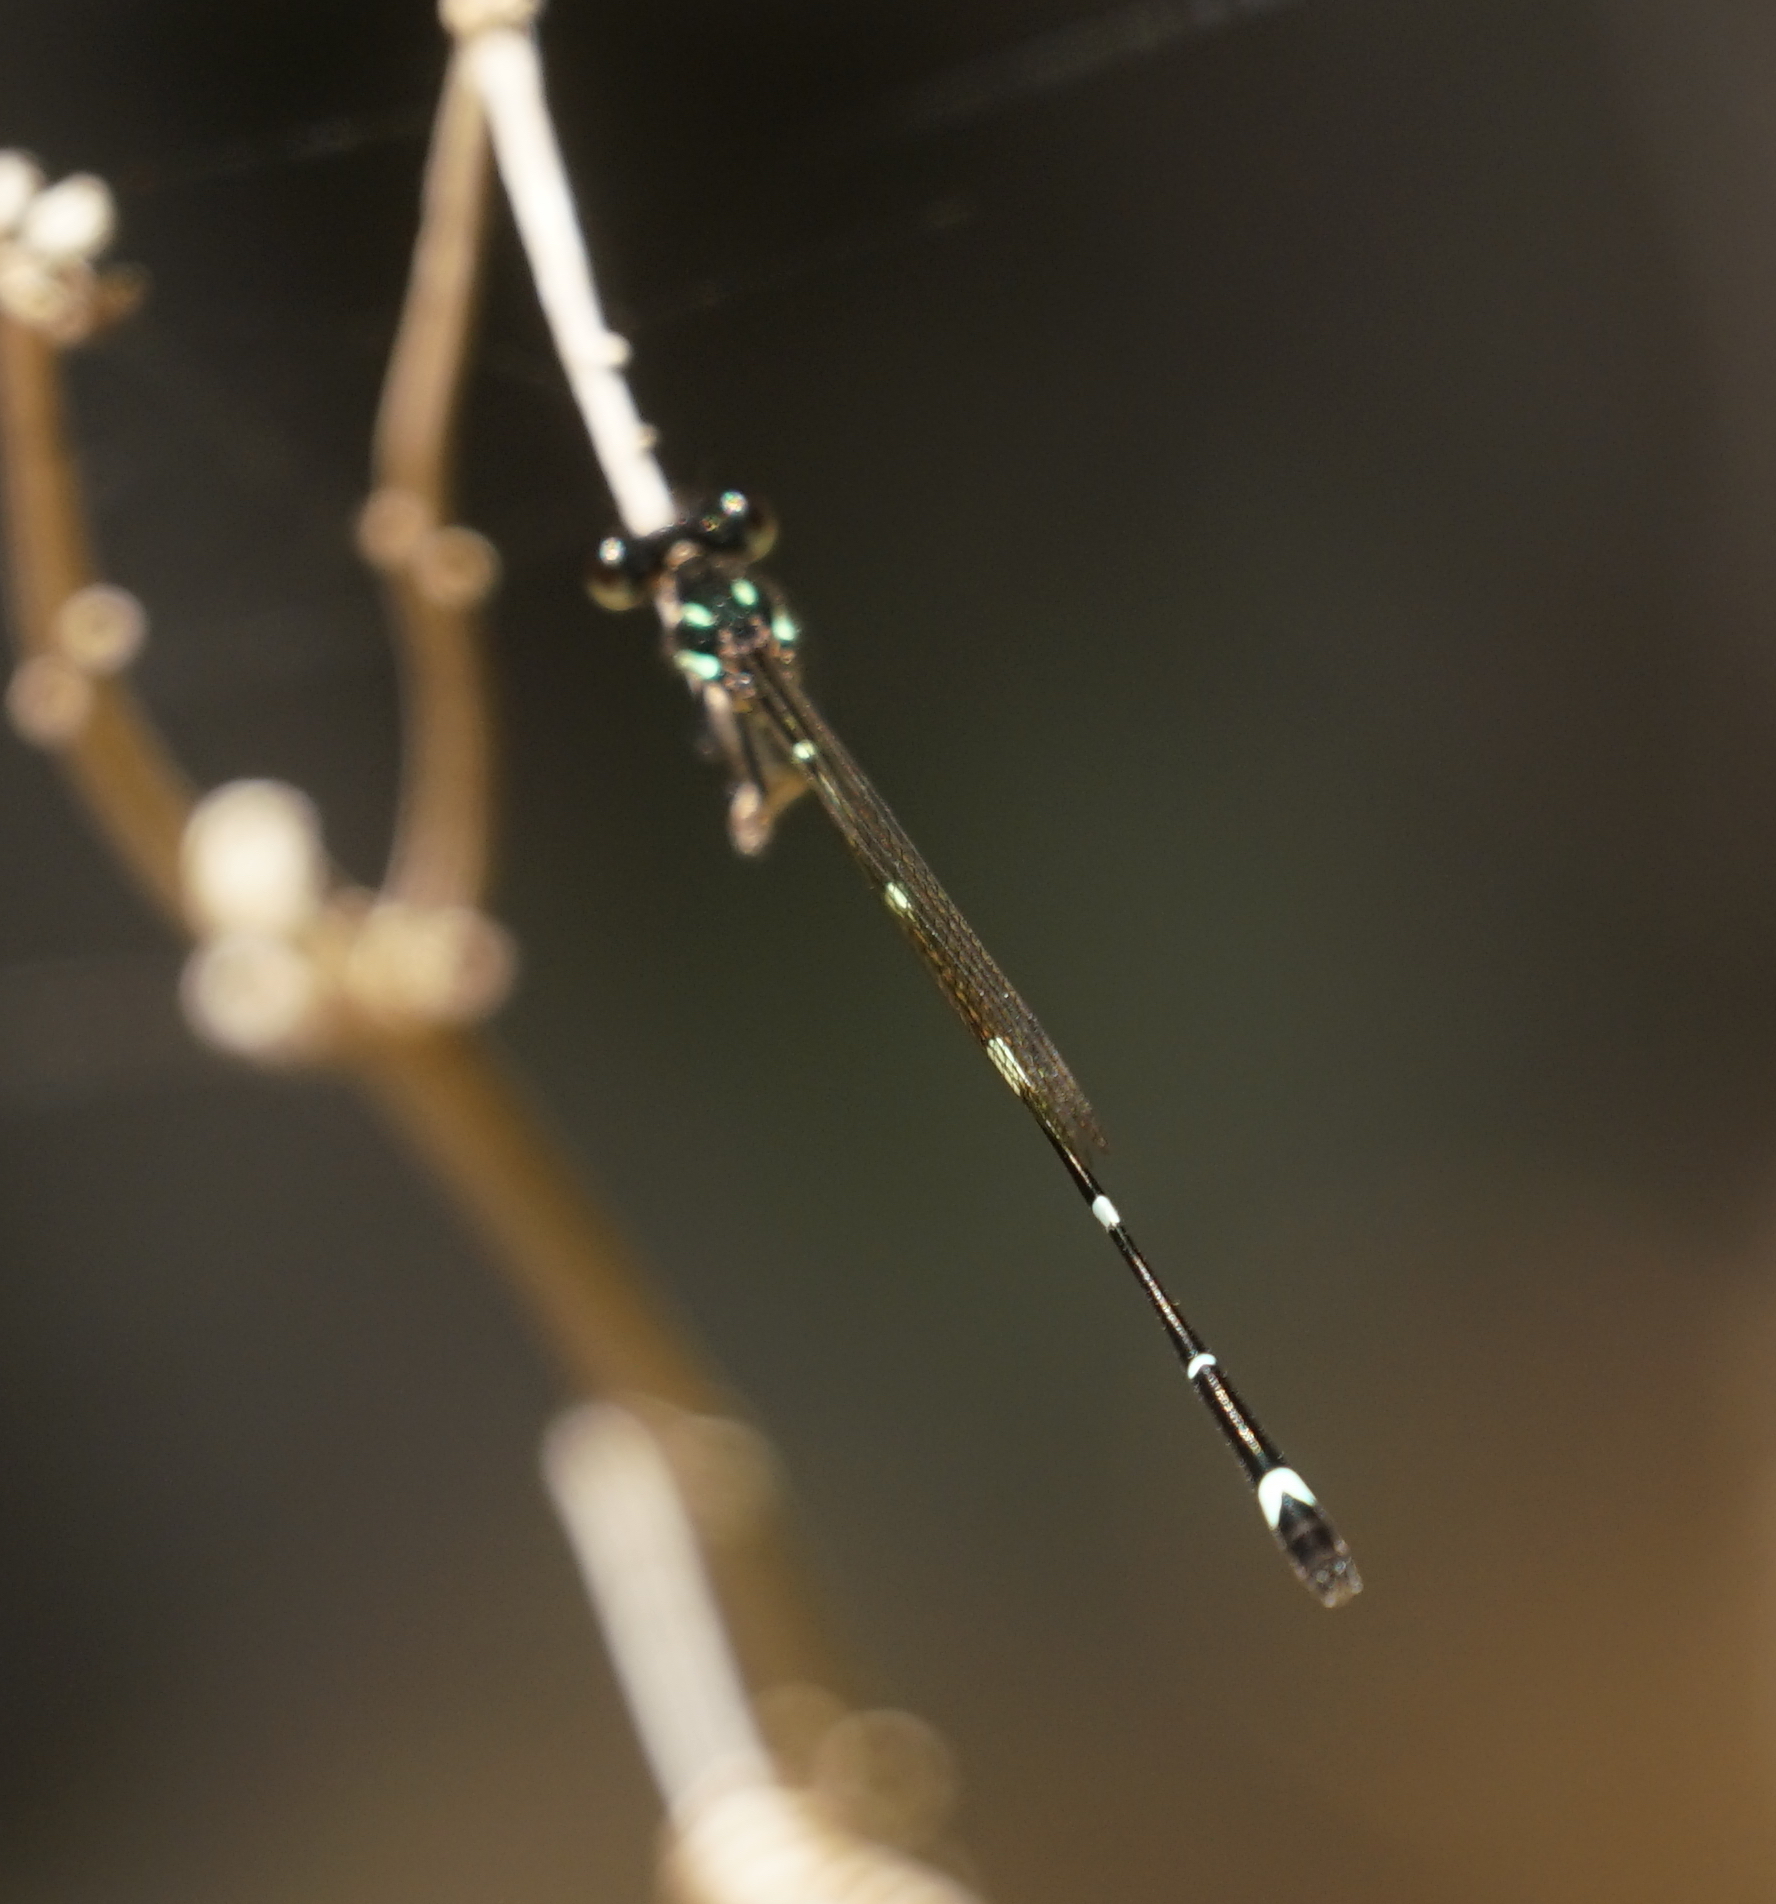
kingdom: Animalia
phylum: Arthropoda
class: Insecta
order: Odonata
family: Platycnemididae
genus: Nososticta
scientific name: Nososticta solitaria
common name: Fivespot threadtail
